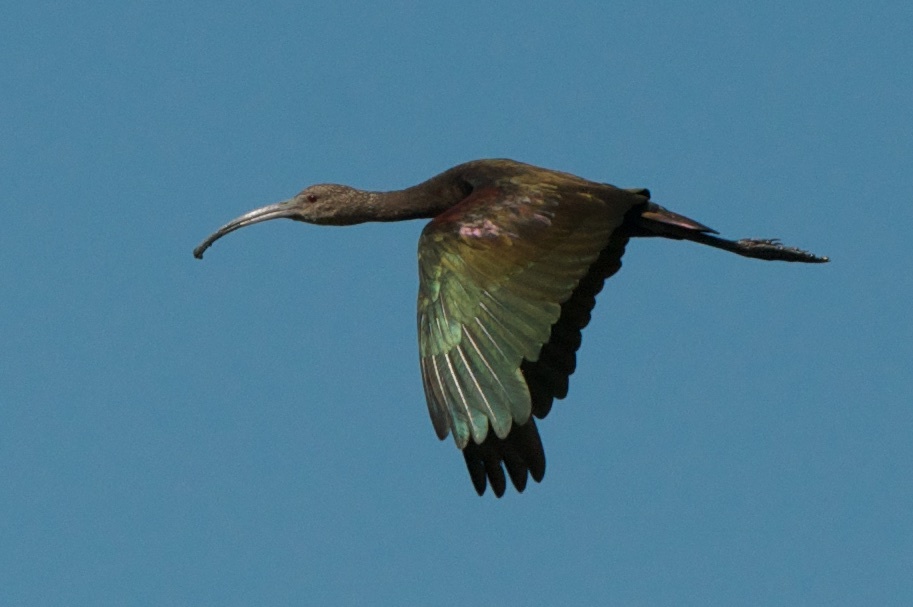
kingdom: Animalia
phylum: Chordata
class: Aves
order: Pelecaniformes
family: Threskiornithidae
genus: Plegadis
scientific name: Plegadis chihi
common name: White-faced ibis
